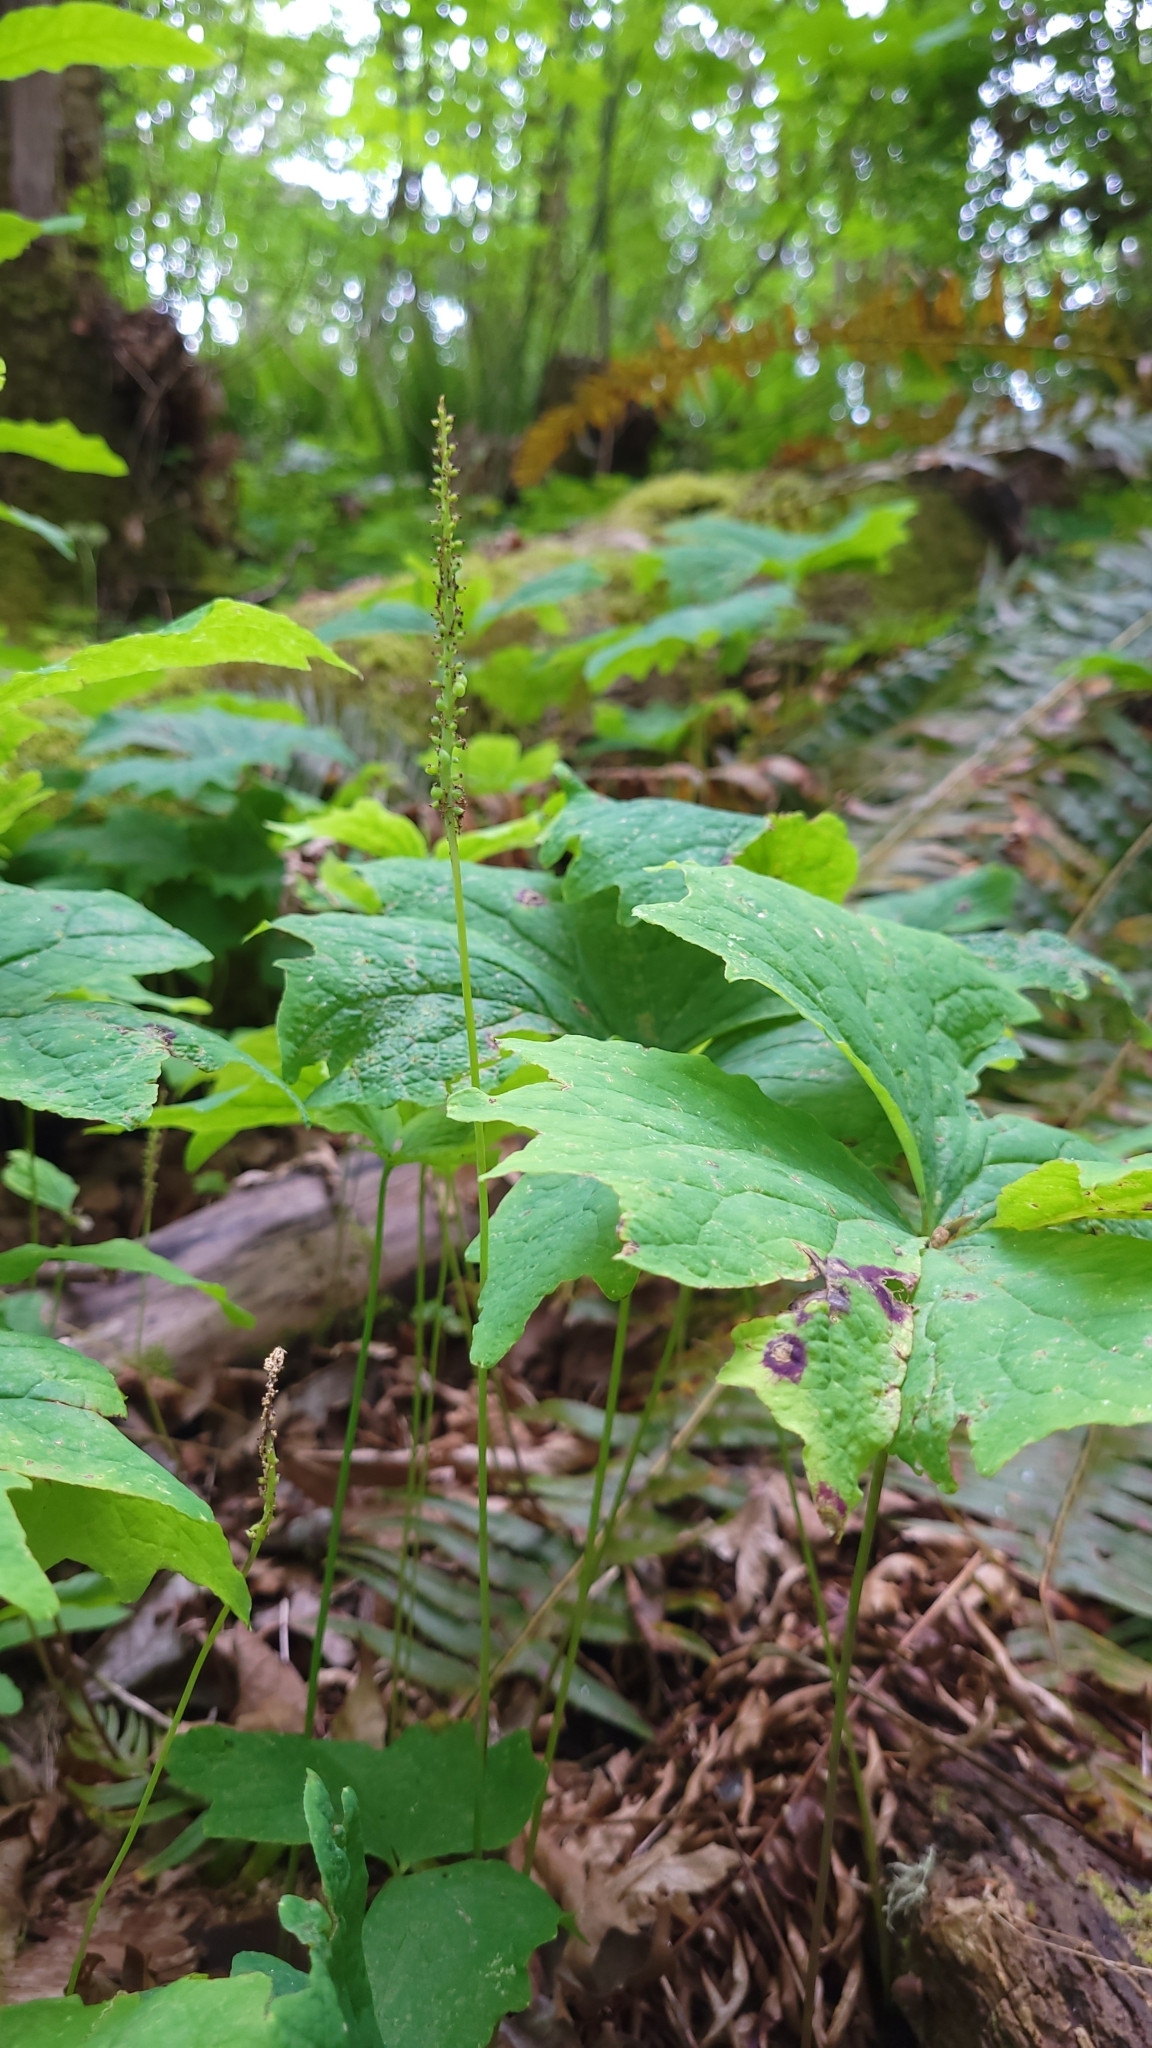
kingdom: Plantae
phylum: Tracheophyta
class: Magnoliopsida
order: Ranunculales
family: Berberidaceae
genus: Achlys
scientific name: Achlys triphylla
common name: Vanilla-leaf
